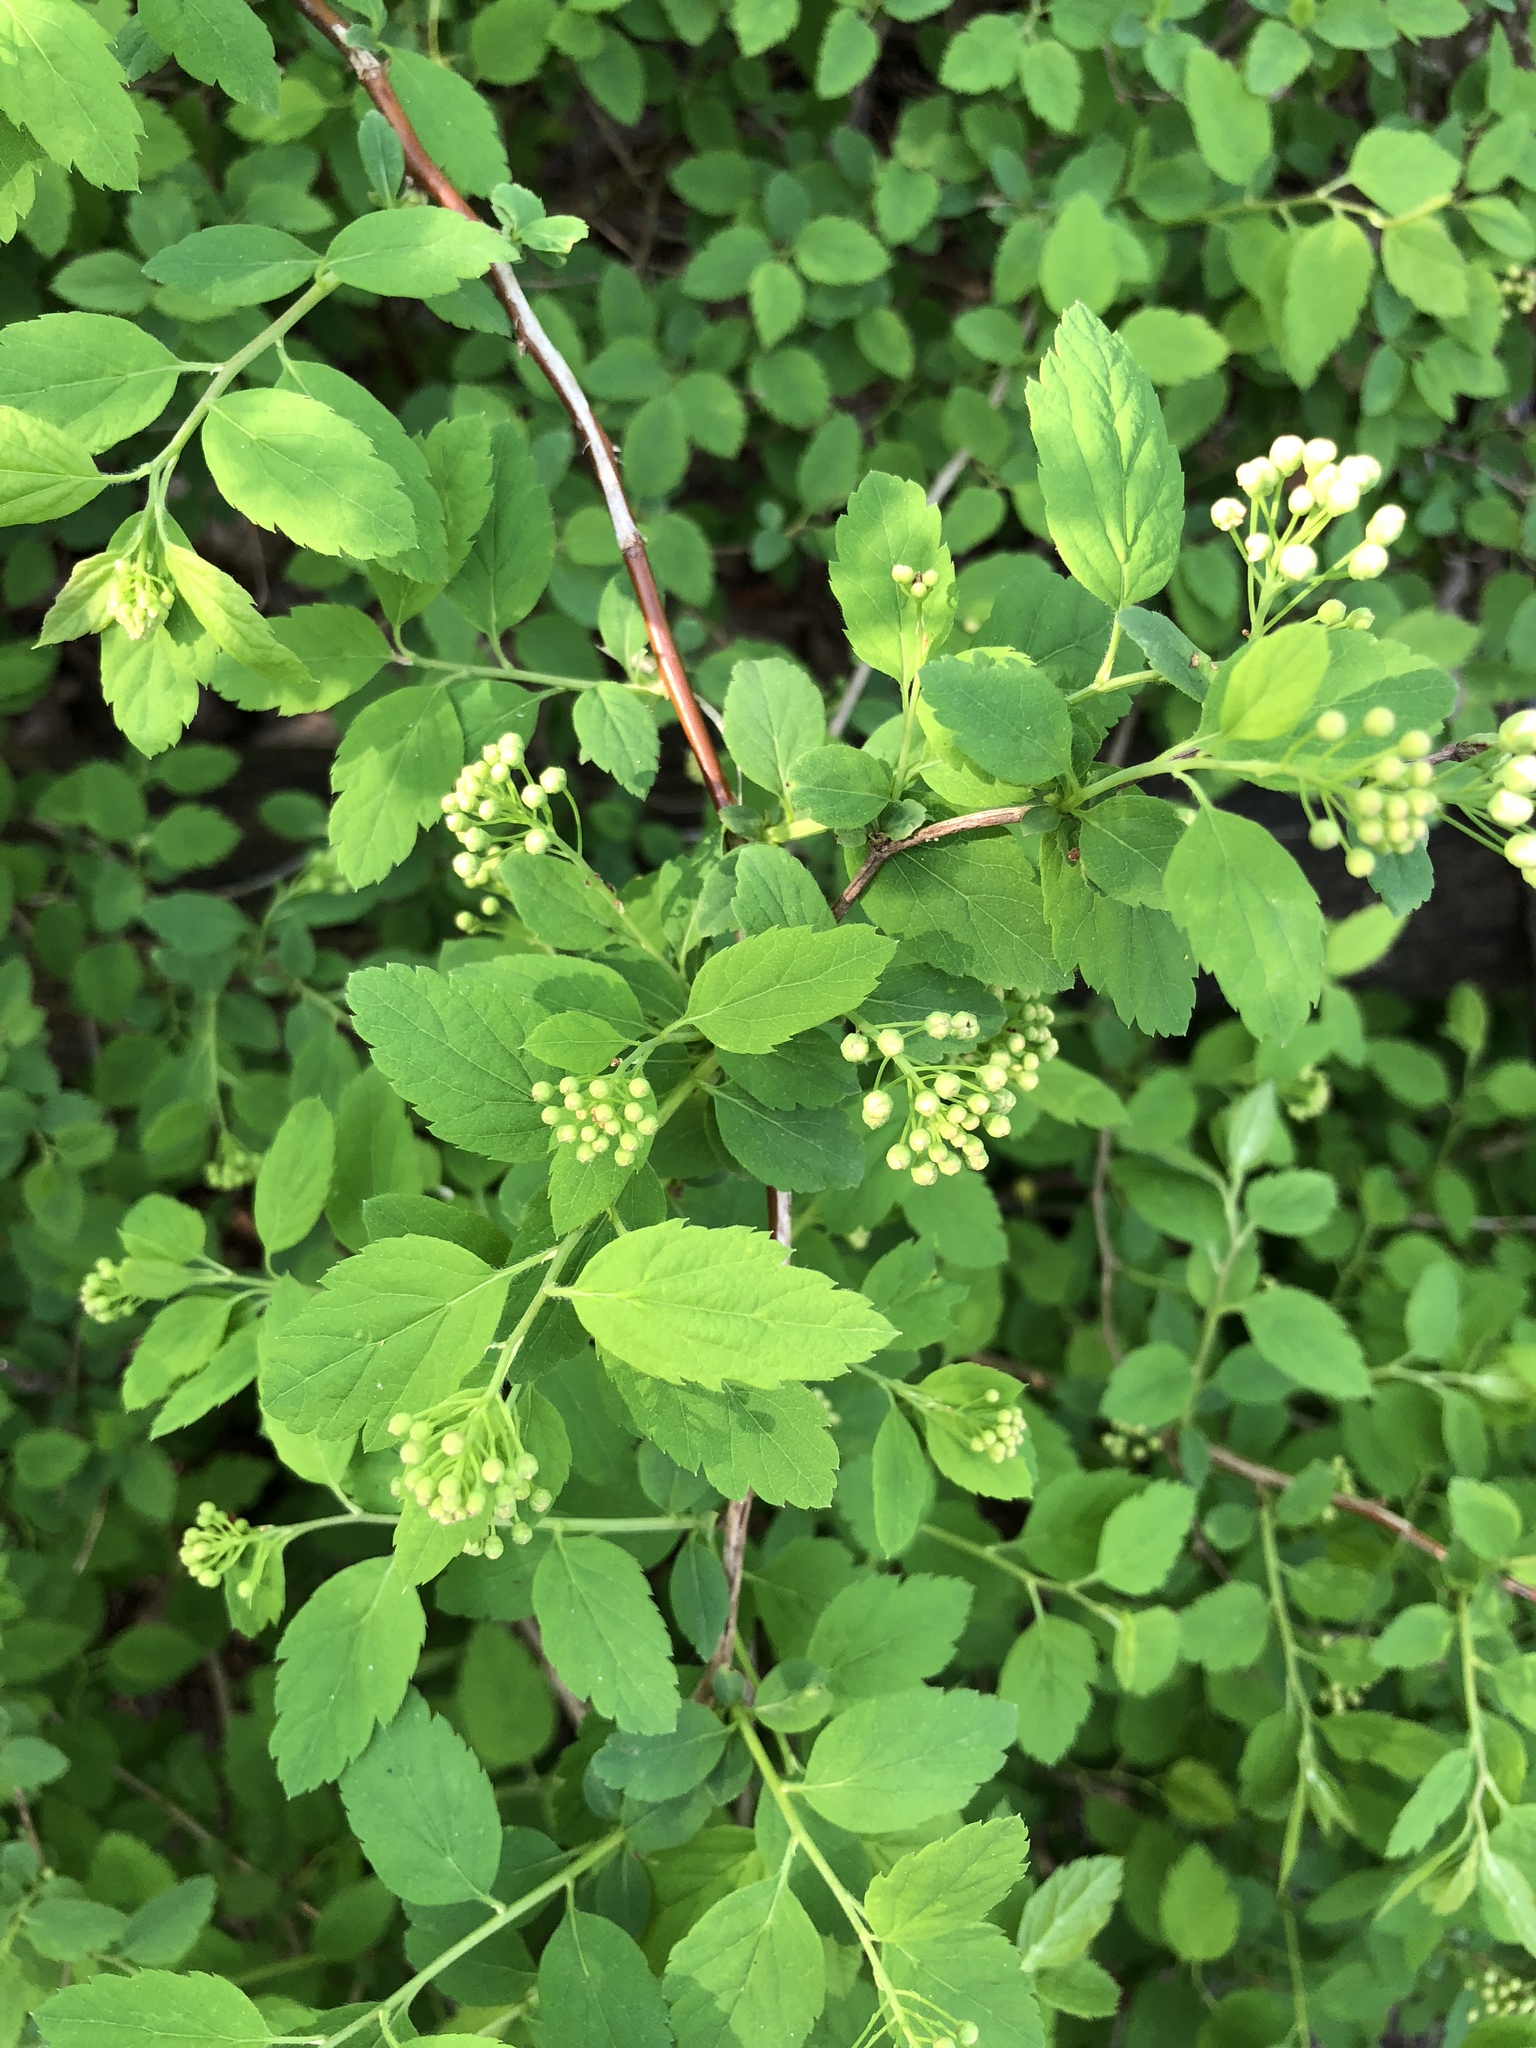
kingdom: Plantae
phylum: Tracheophyta
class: Magnoliopsida
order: Cornales
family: Cornaceae
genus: Cornus
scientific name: Cornus mas
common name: Cornelian-cherry
